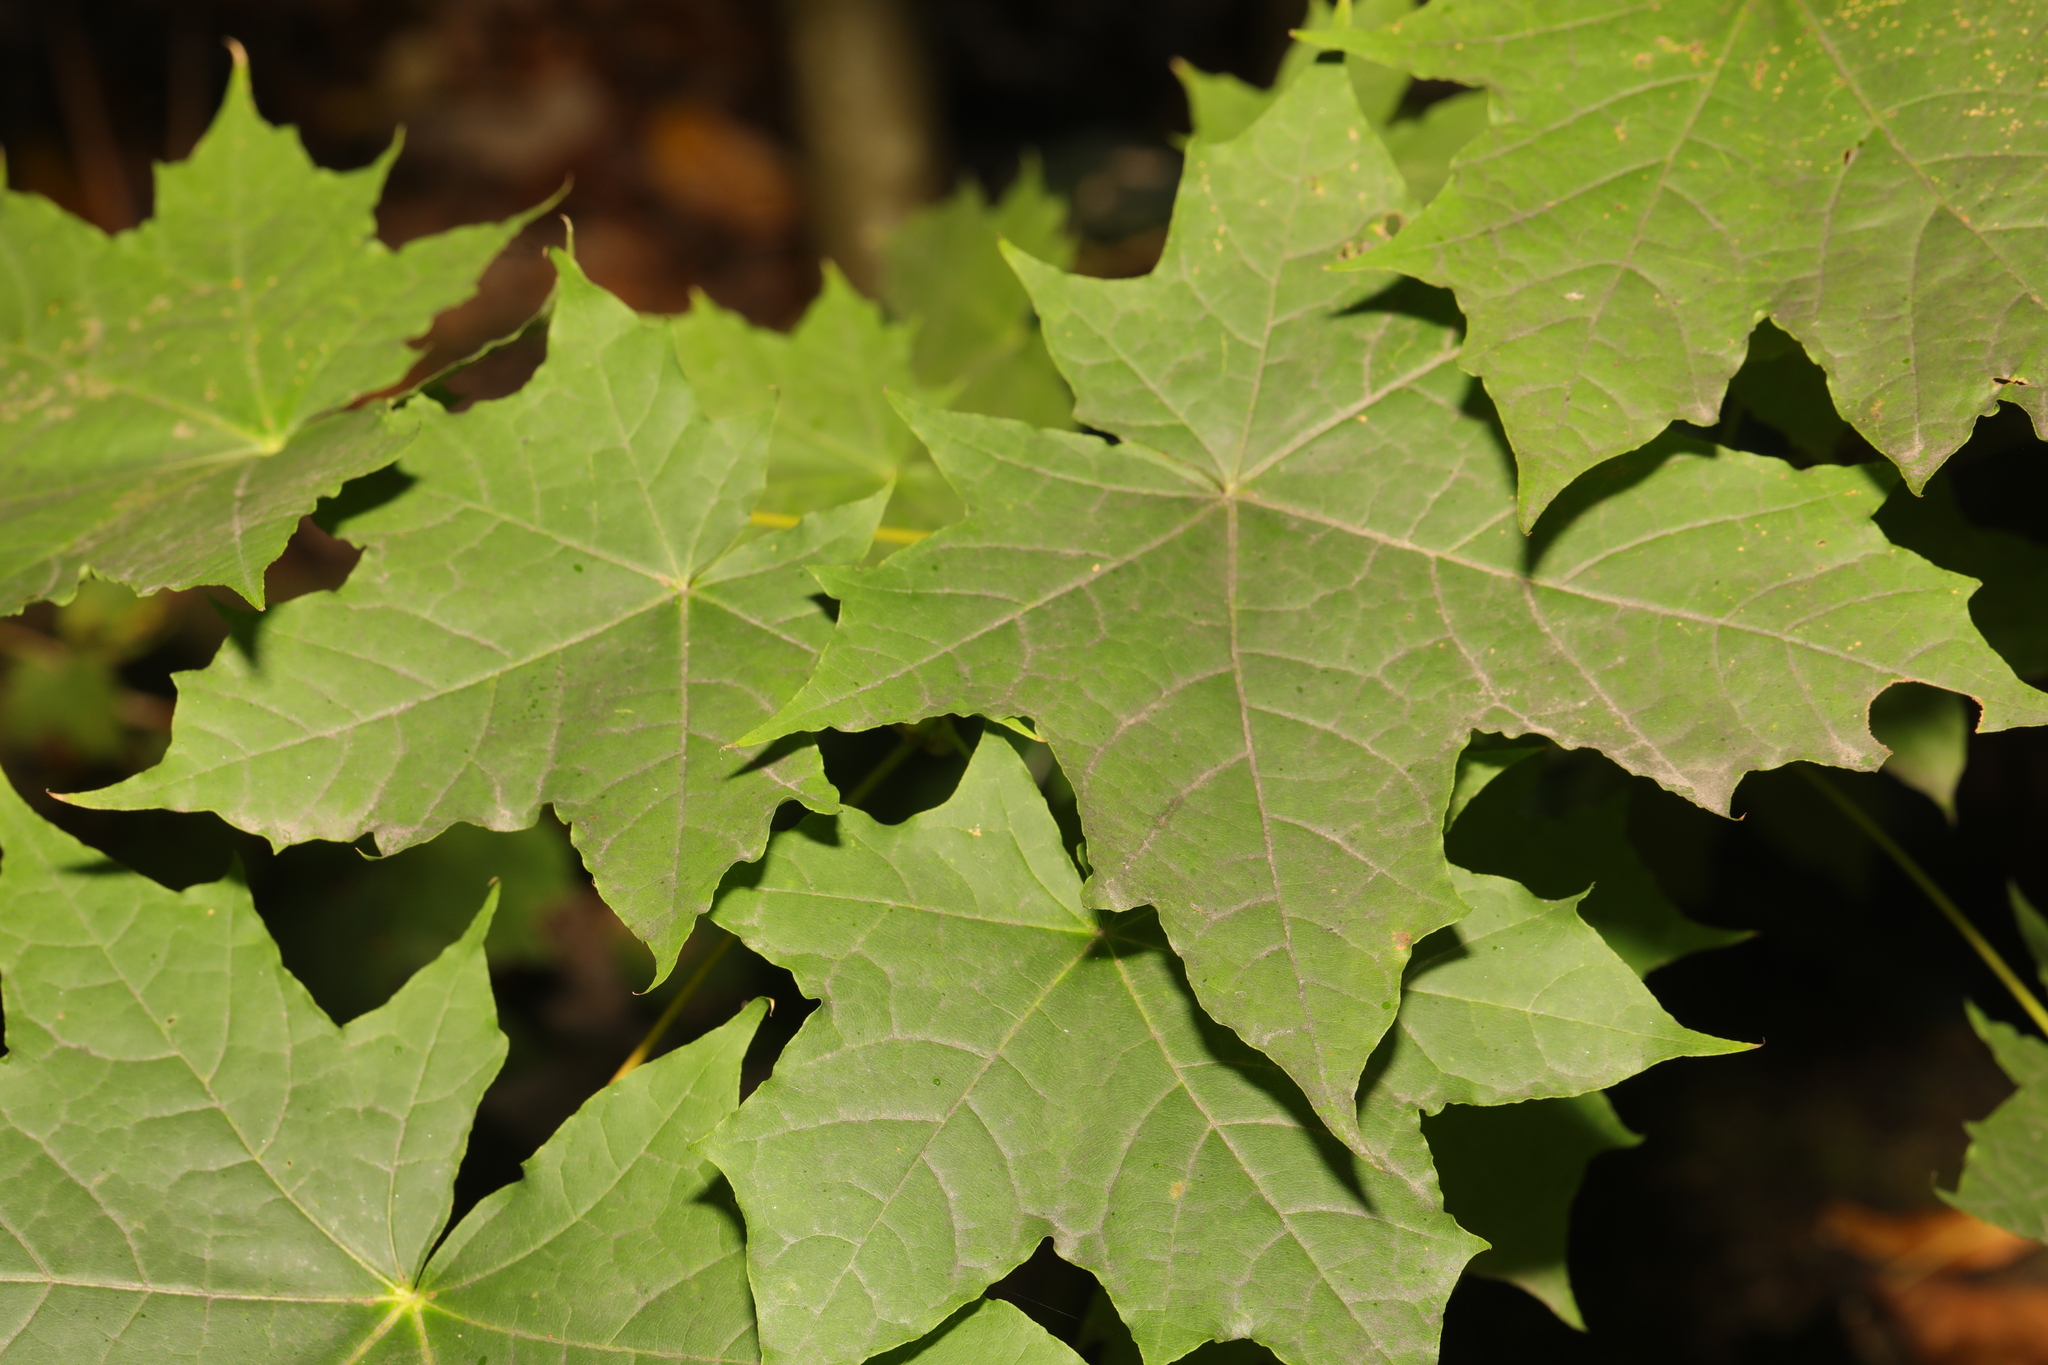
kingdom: Plantae
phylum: Tracheophyta
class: Magnoliopsida
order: Sapindales
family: Sapindaceae
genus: Acer
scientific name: Acer platanoides
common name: Norway maple
